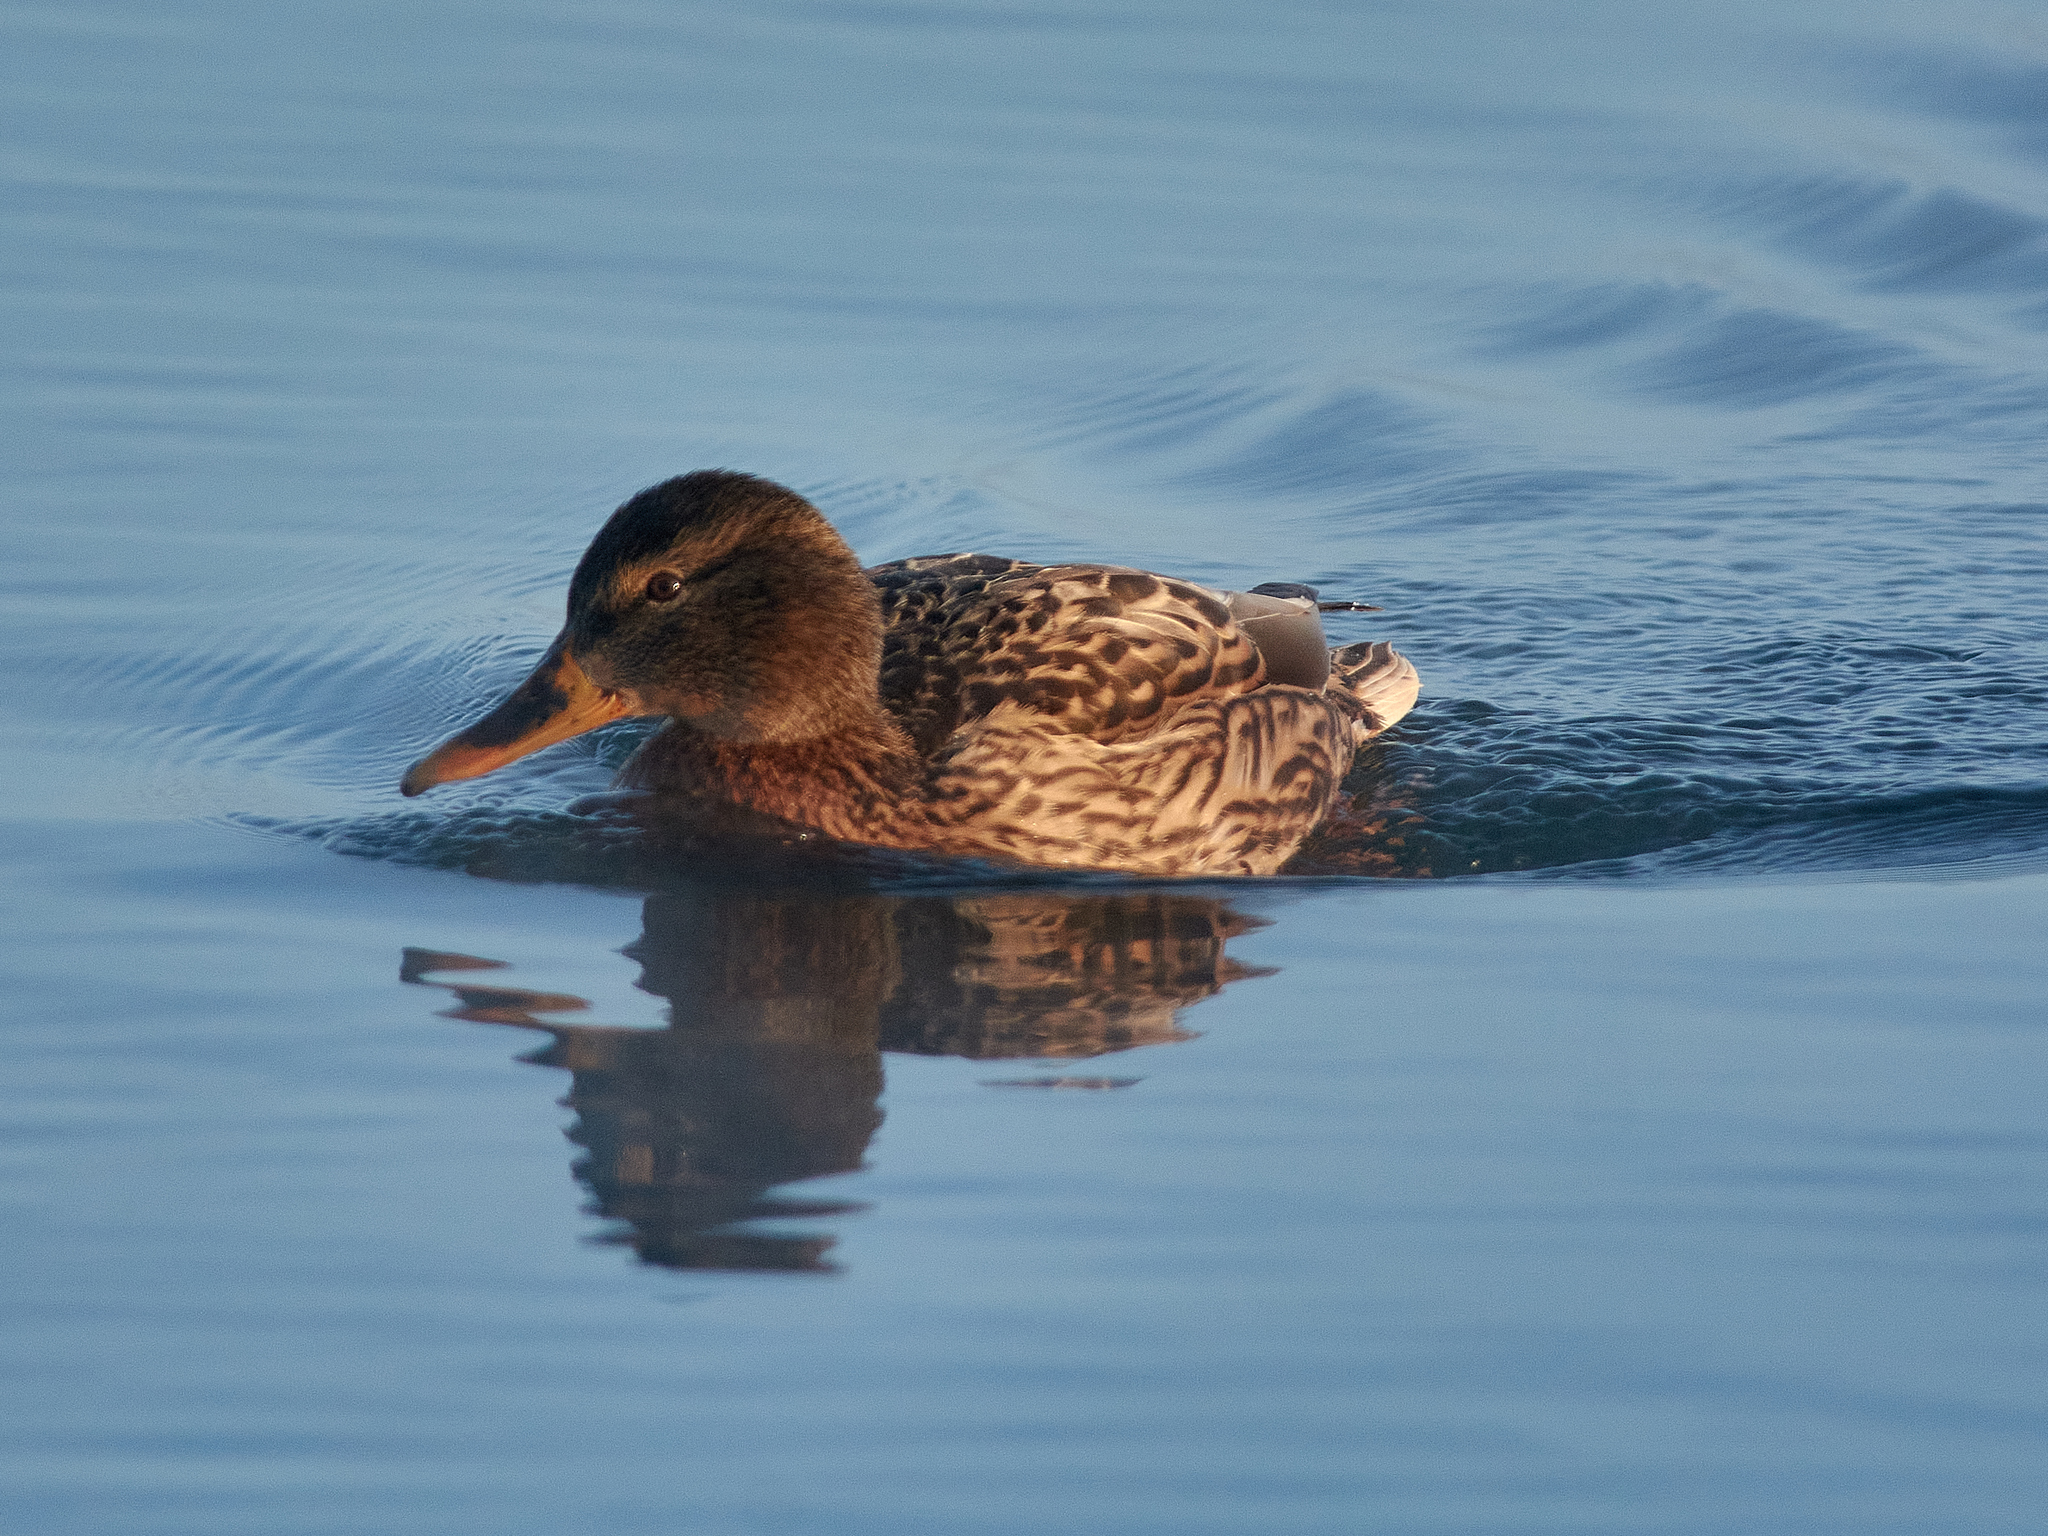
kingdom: Animalia
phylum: Chordata
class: Aves
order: Anseriformes
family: Anatidae
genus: Anas
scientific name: Anas platyrhynchos
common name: Mallard
